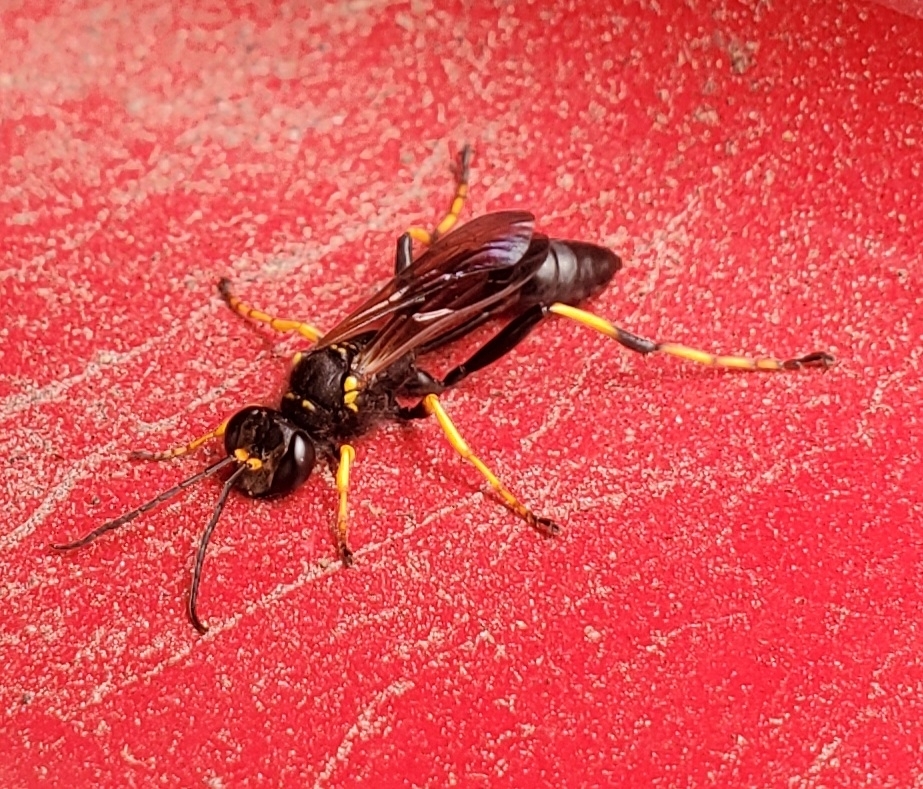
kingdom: Animalia
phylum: Arthropoda
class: Insecta
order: Hymenoptera
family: Sphecidae
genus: Sceliphron
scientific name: Sceliphron caementarium
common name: Mud dauber
